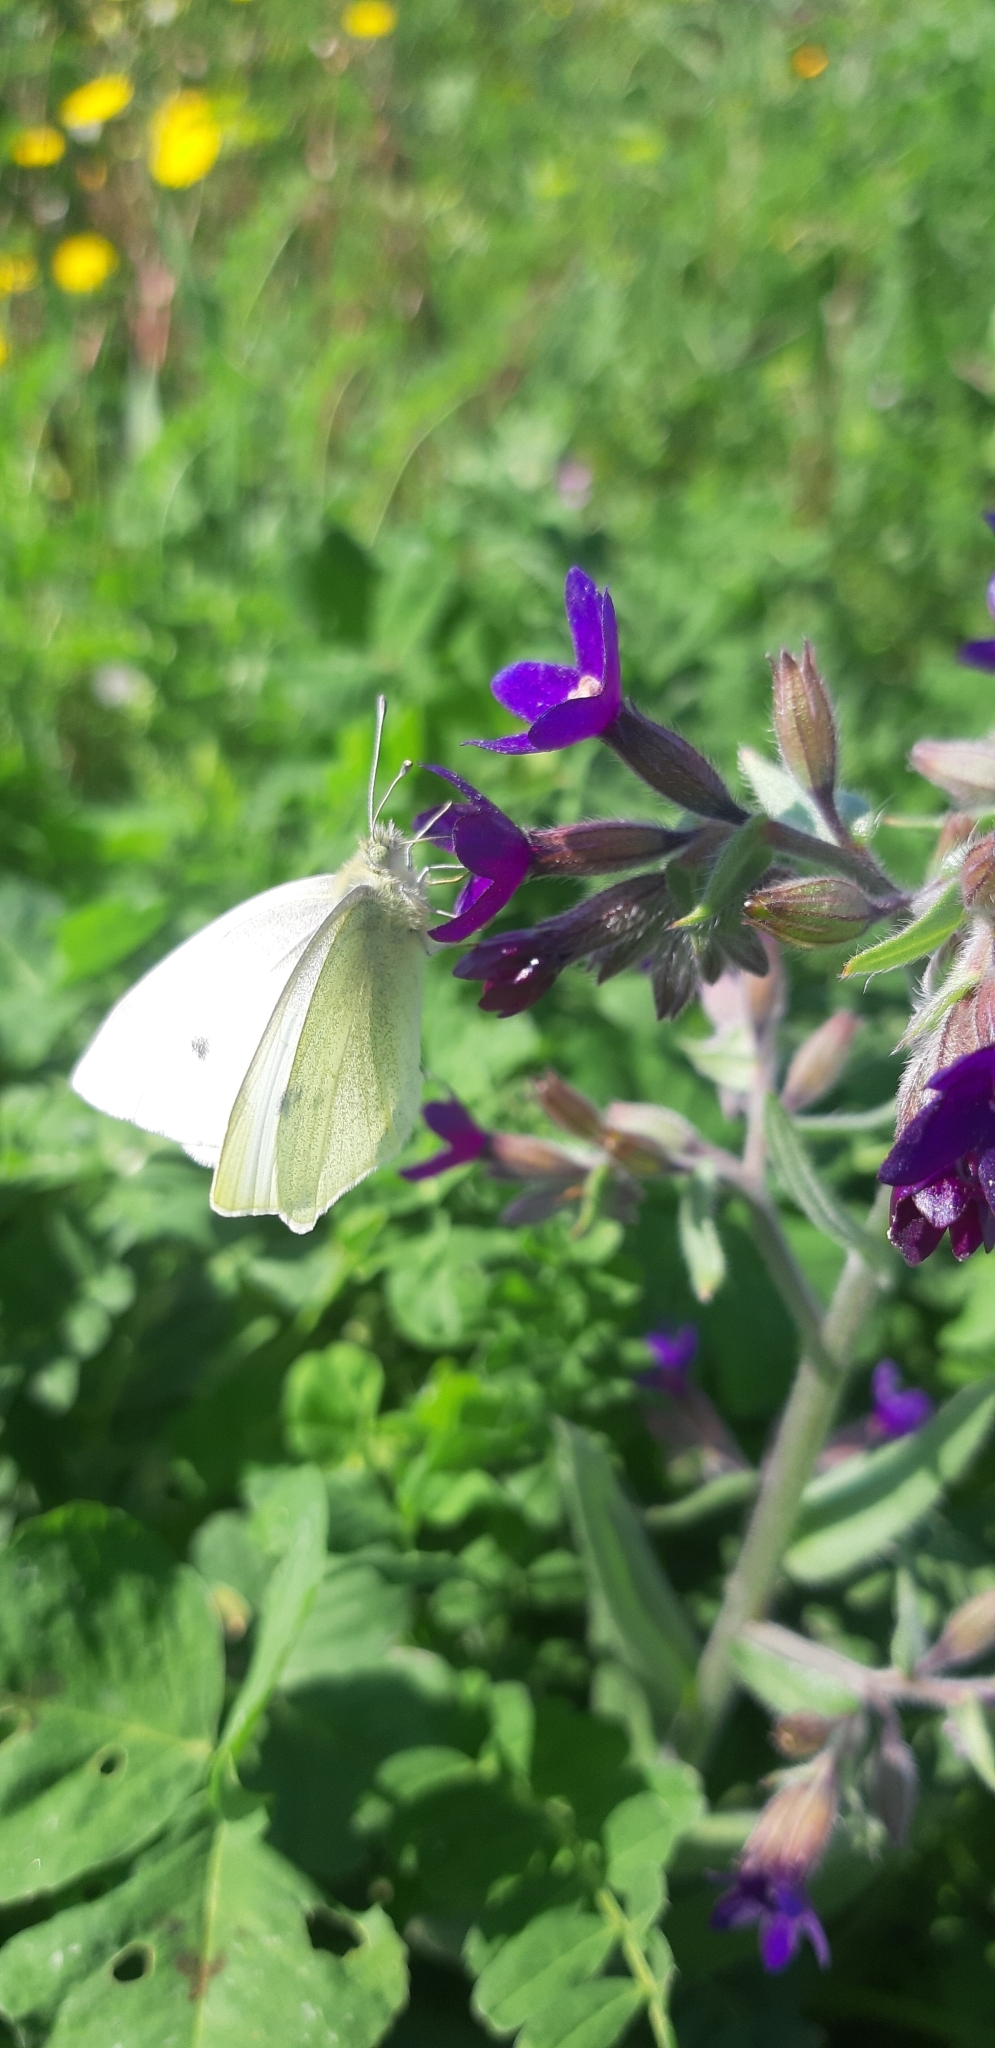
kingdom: Animalia
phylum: Arthropoda
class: Insecta
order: Lepidoptera
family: Pieridae
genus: Pieris
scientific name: Pieris rapae
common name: Small white
